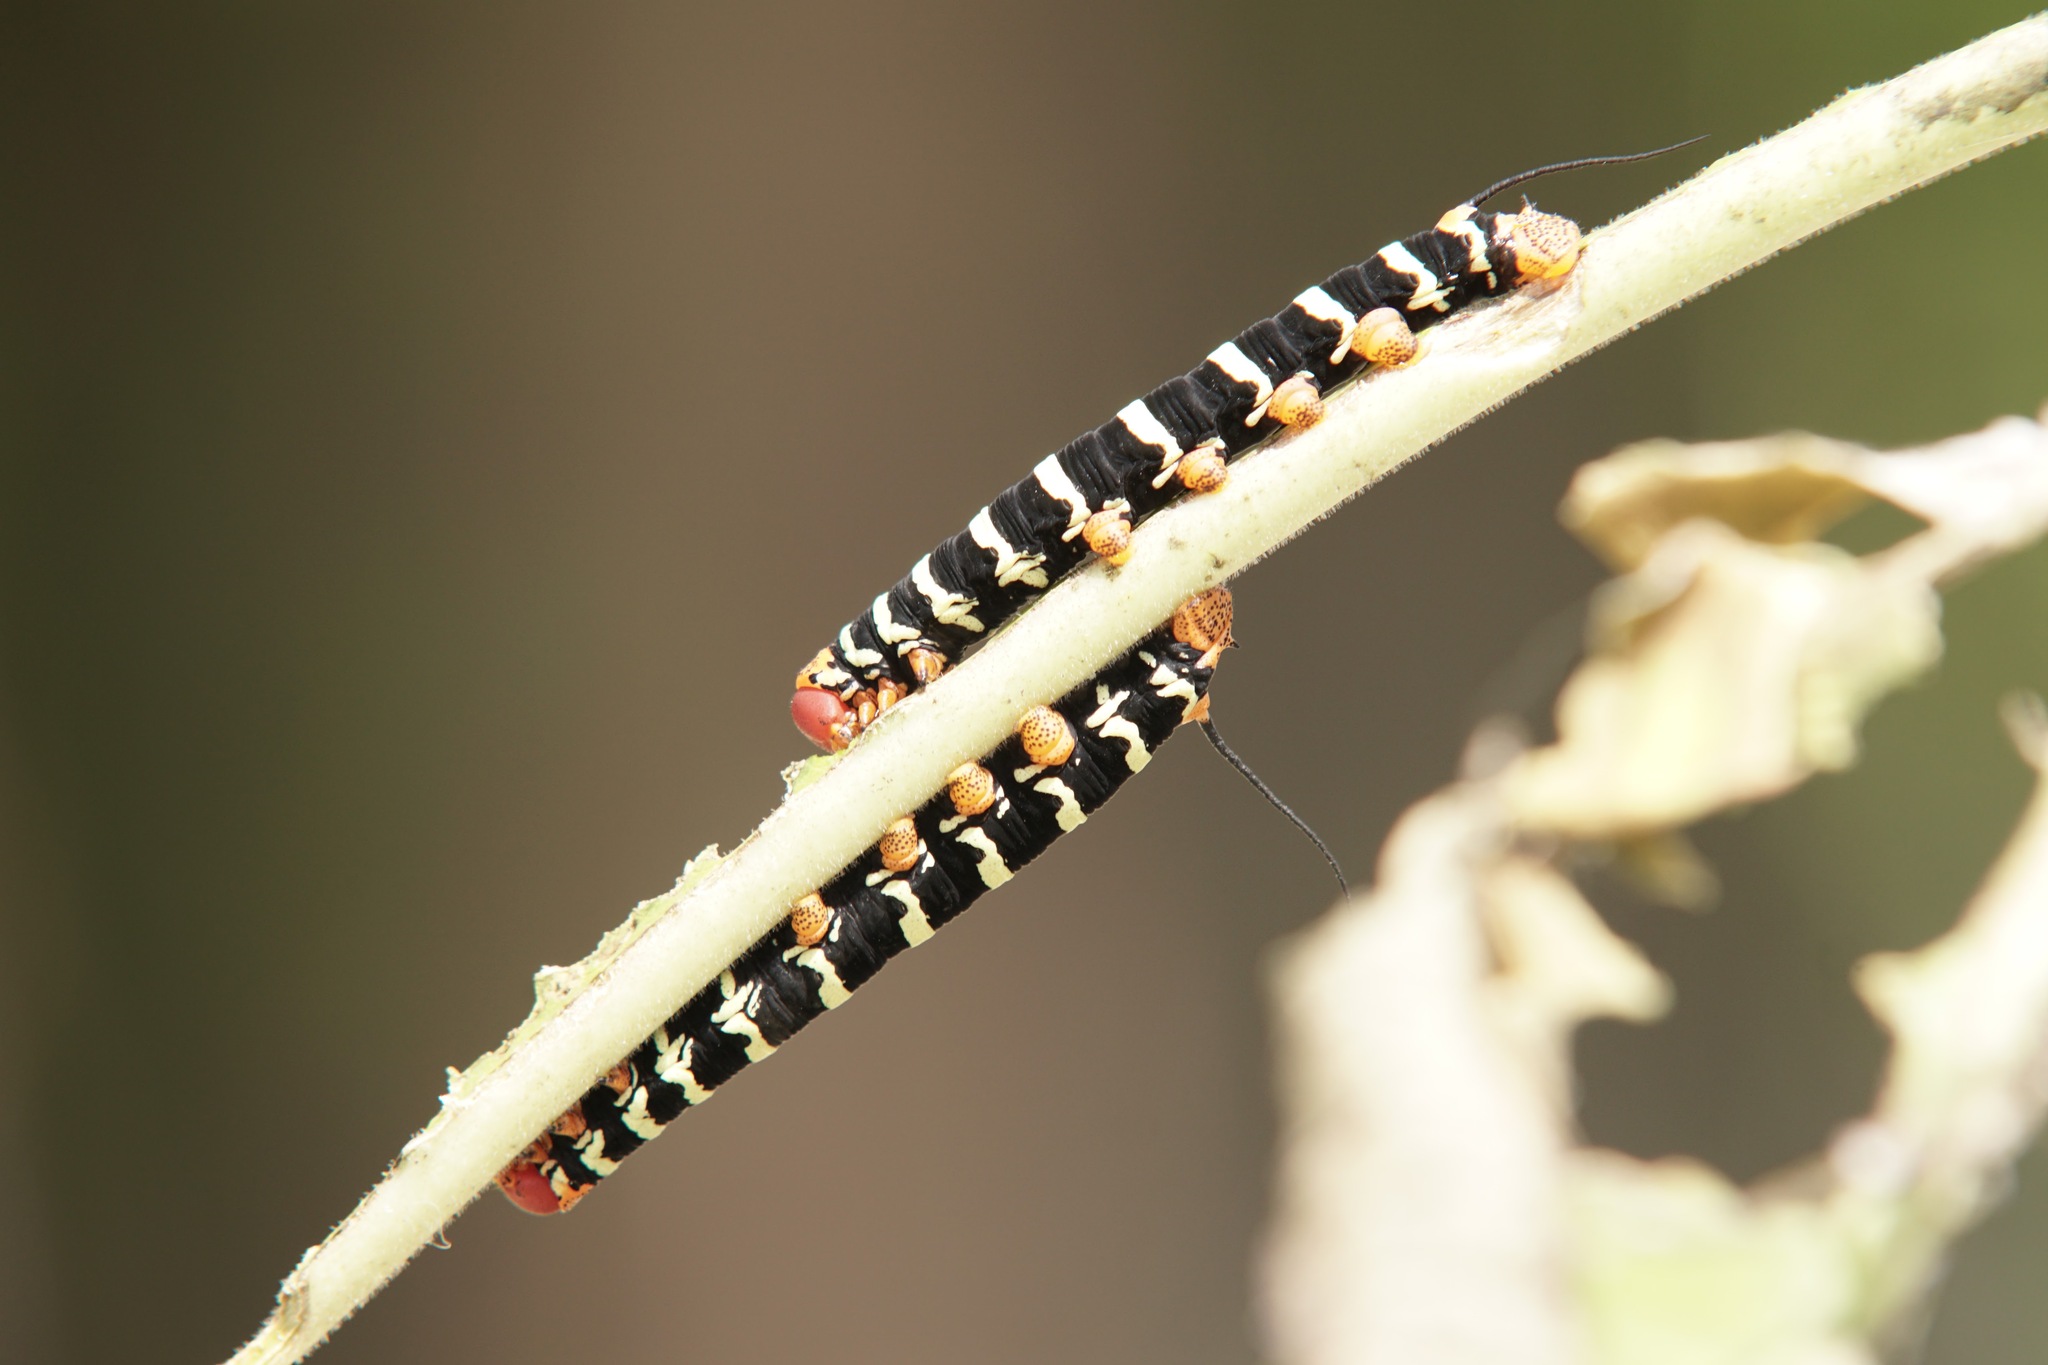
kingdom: Animalia
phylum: Arthropoda
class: Insecta
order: Lepidoptera
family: Sphingidae
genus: Pseudosphinx
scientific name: Pseudosphinx tetrio
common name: Tetrio sphinx
